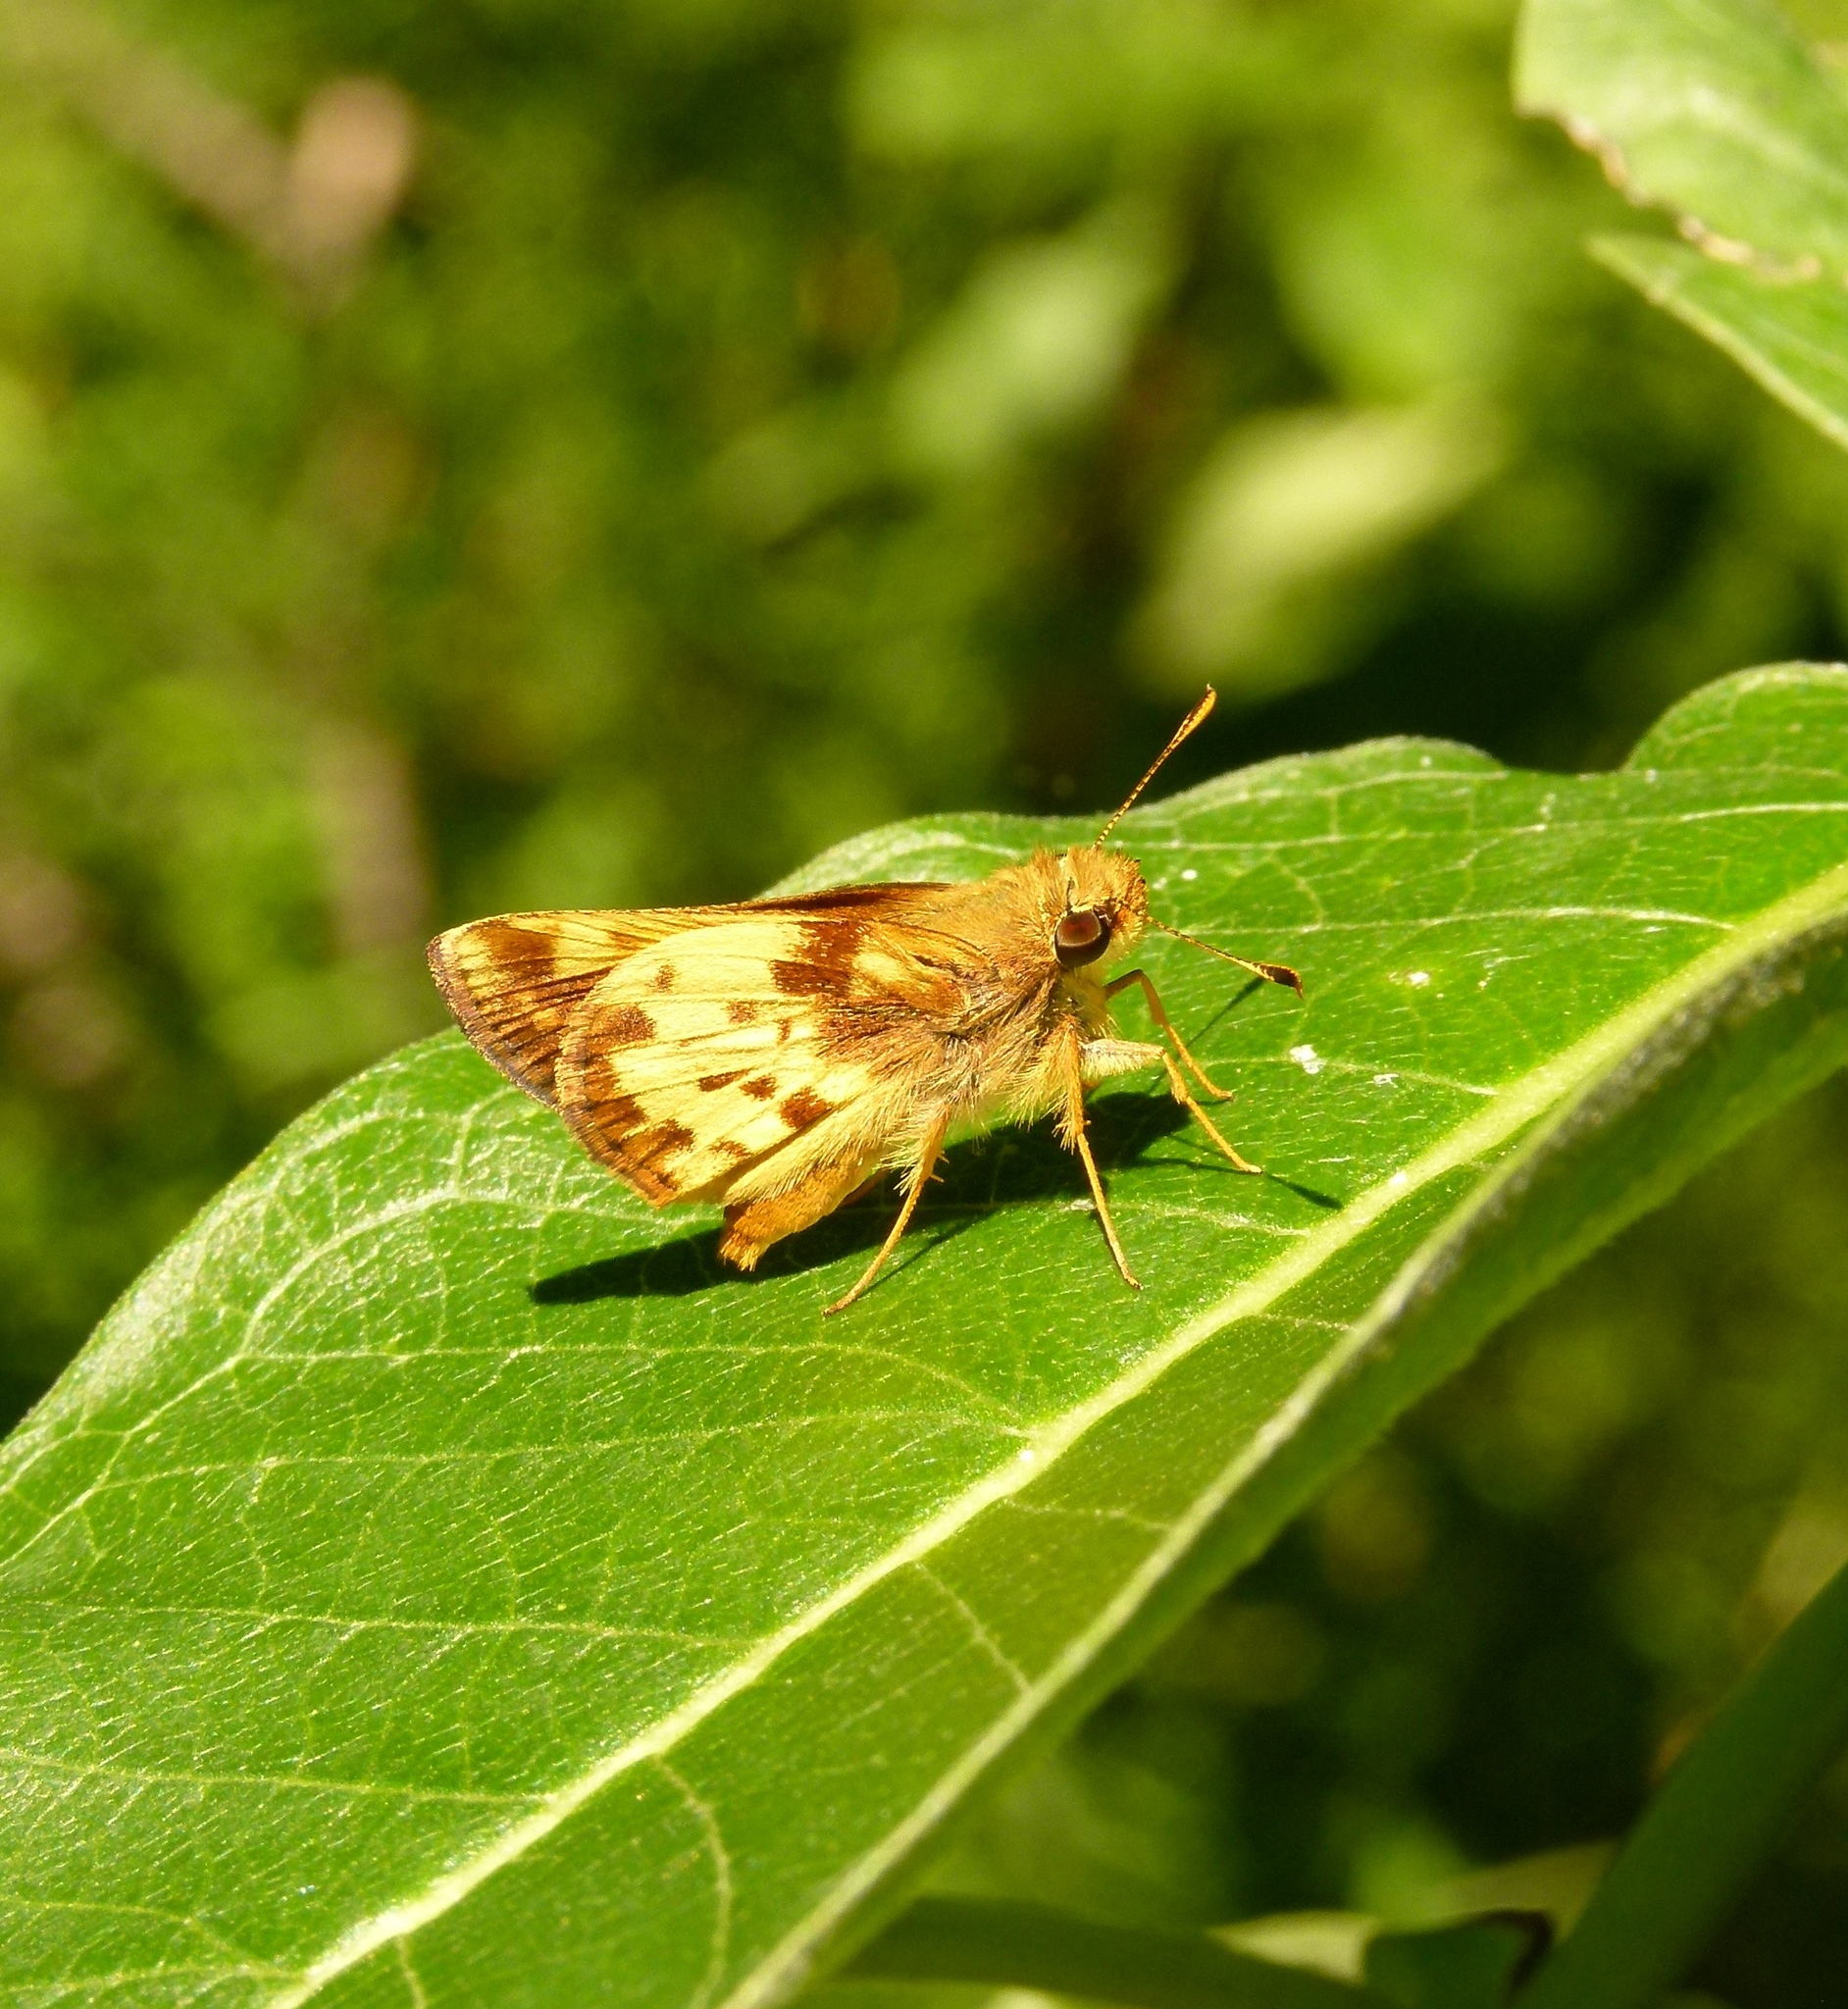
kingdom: Animalia
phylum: Arthropoda
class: Insecta
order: Lepidoptera
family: Hesperiidae
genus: Lon
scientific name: Lon zabulon
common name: Zabulon skipper
